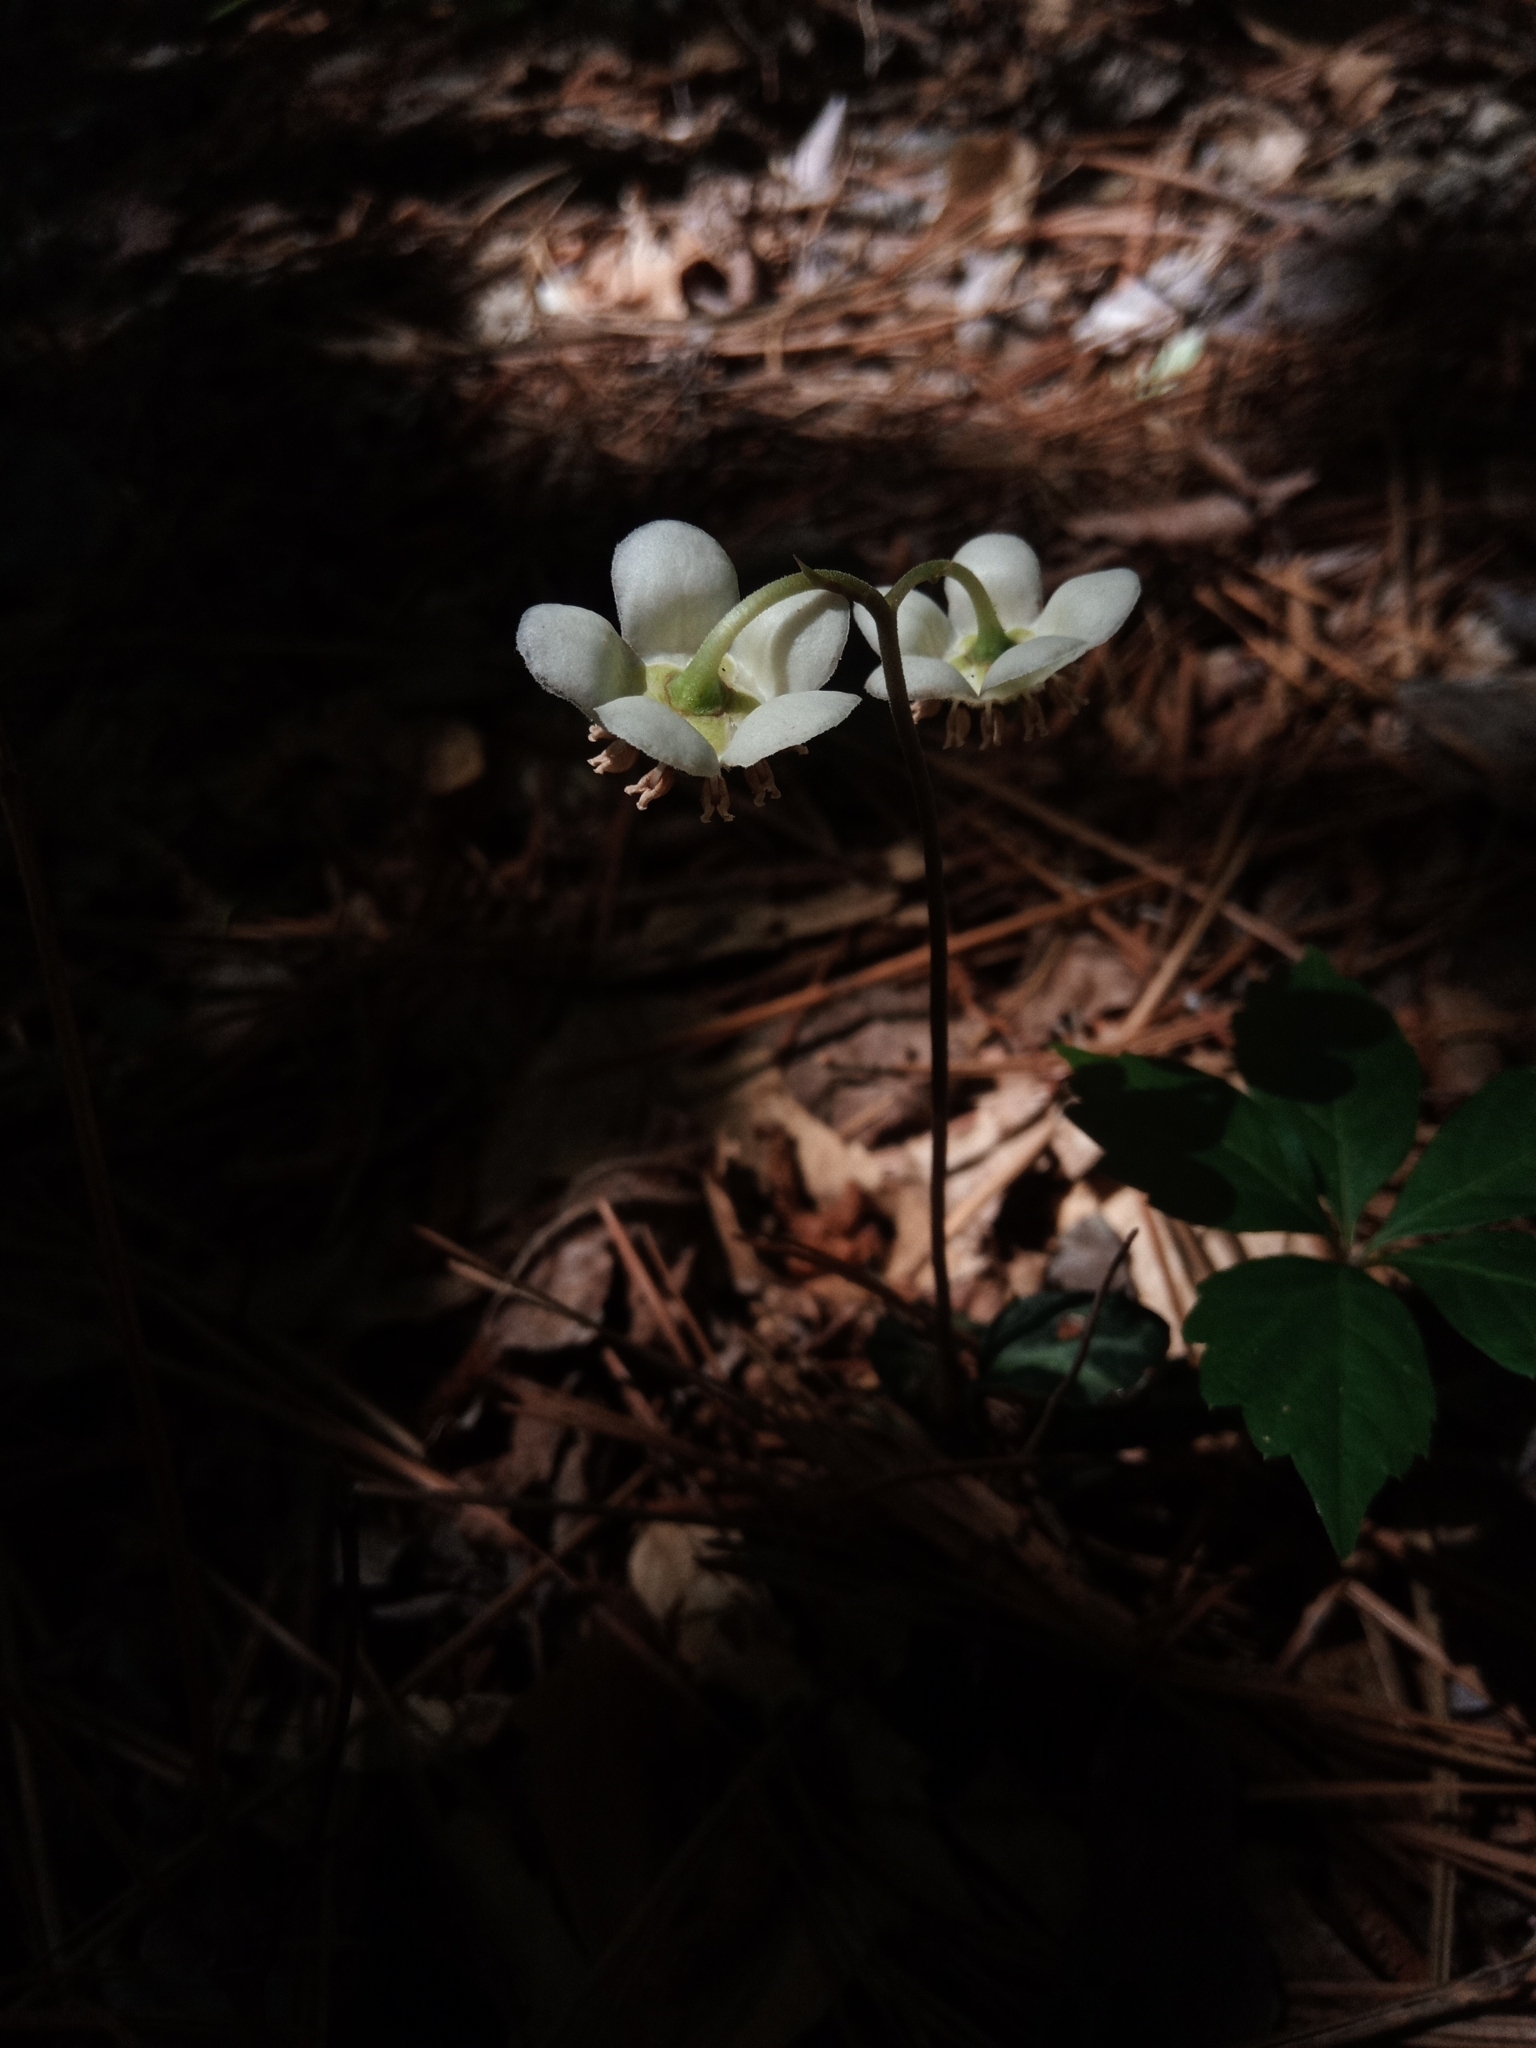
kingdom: Plantae
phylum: Tracheophyta
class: Magnoliopsida
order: Ericales
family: Ericaceae
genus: Chimaphila
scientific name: Chimaphila maculata
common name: Spotted pipsissewa
